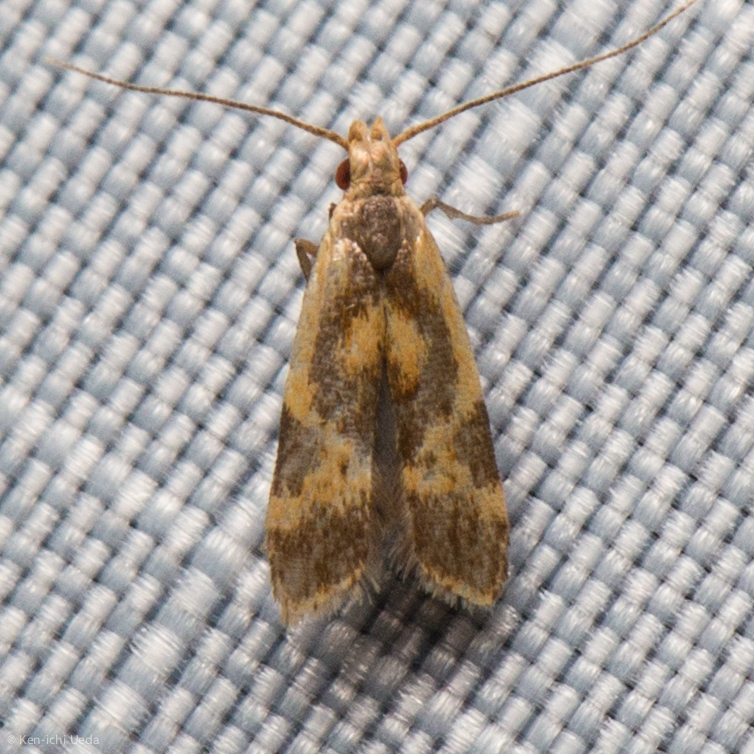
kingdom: Animalia
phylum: Arthropoda
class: Insecta
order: Lepidoptera
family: Gelechiidae
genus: Dichomeris
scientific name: Dichomeris siren
